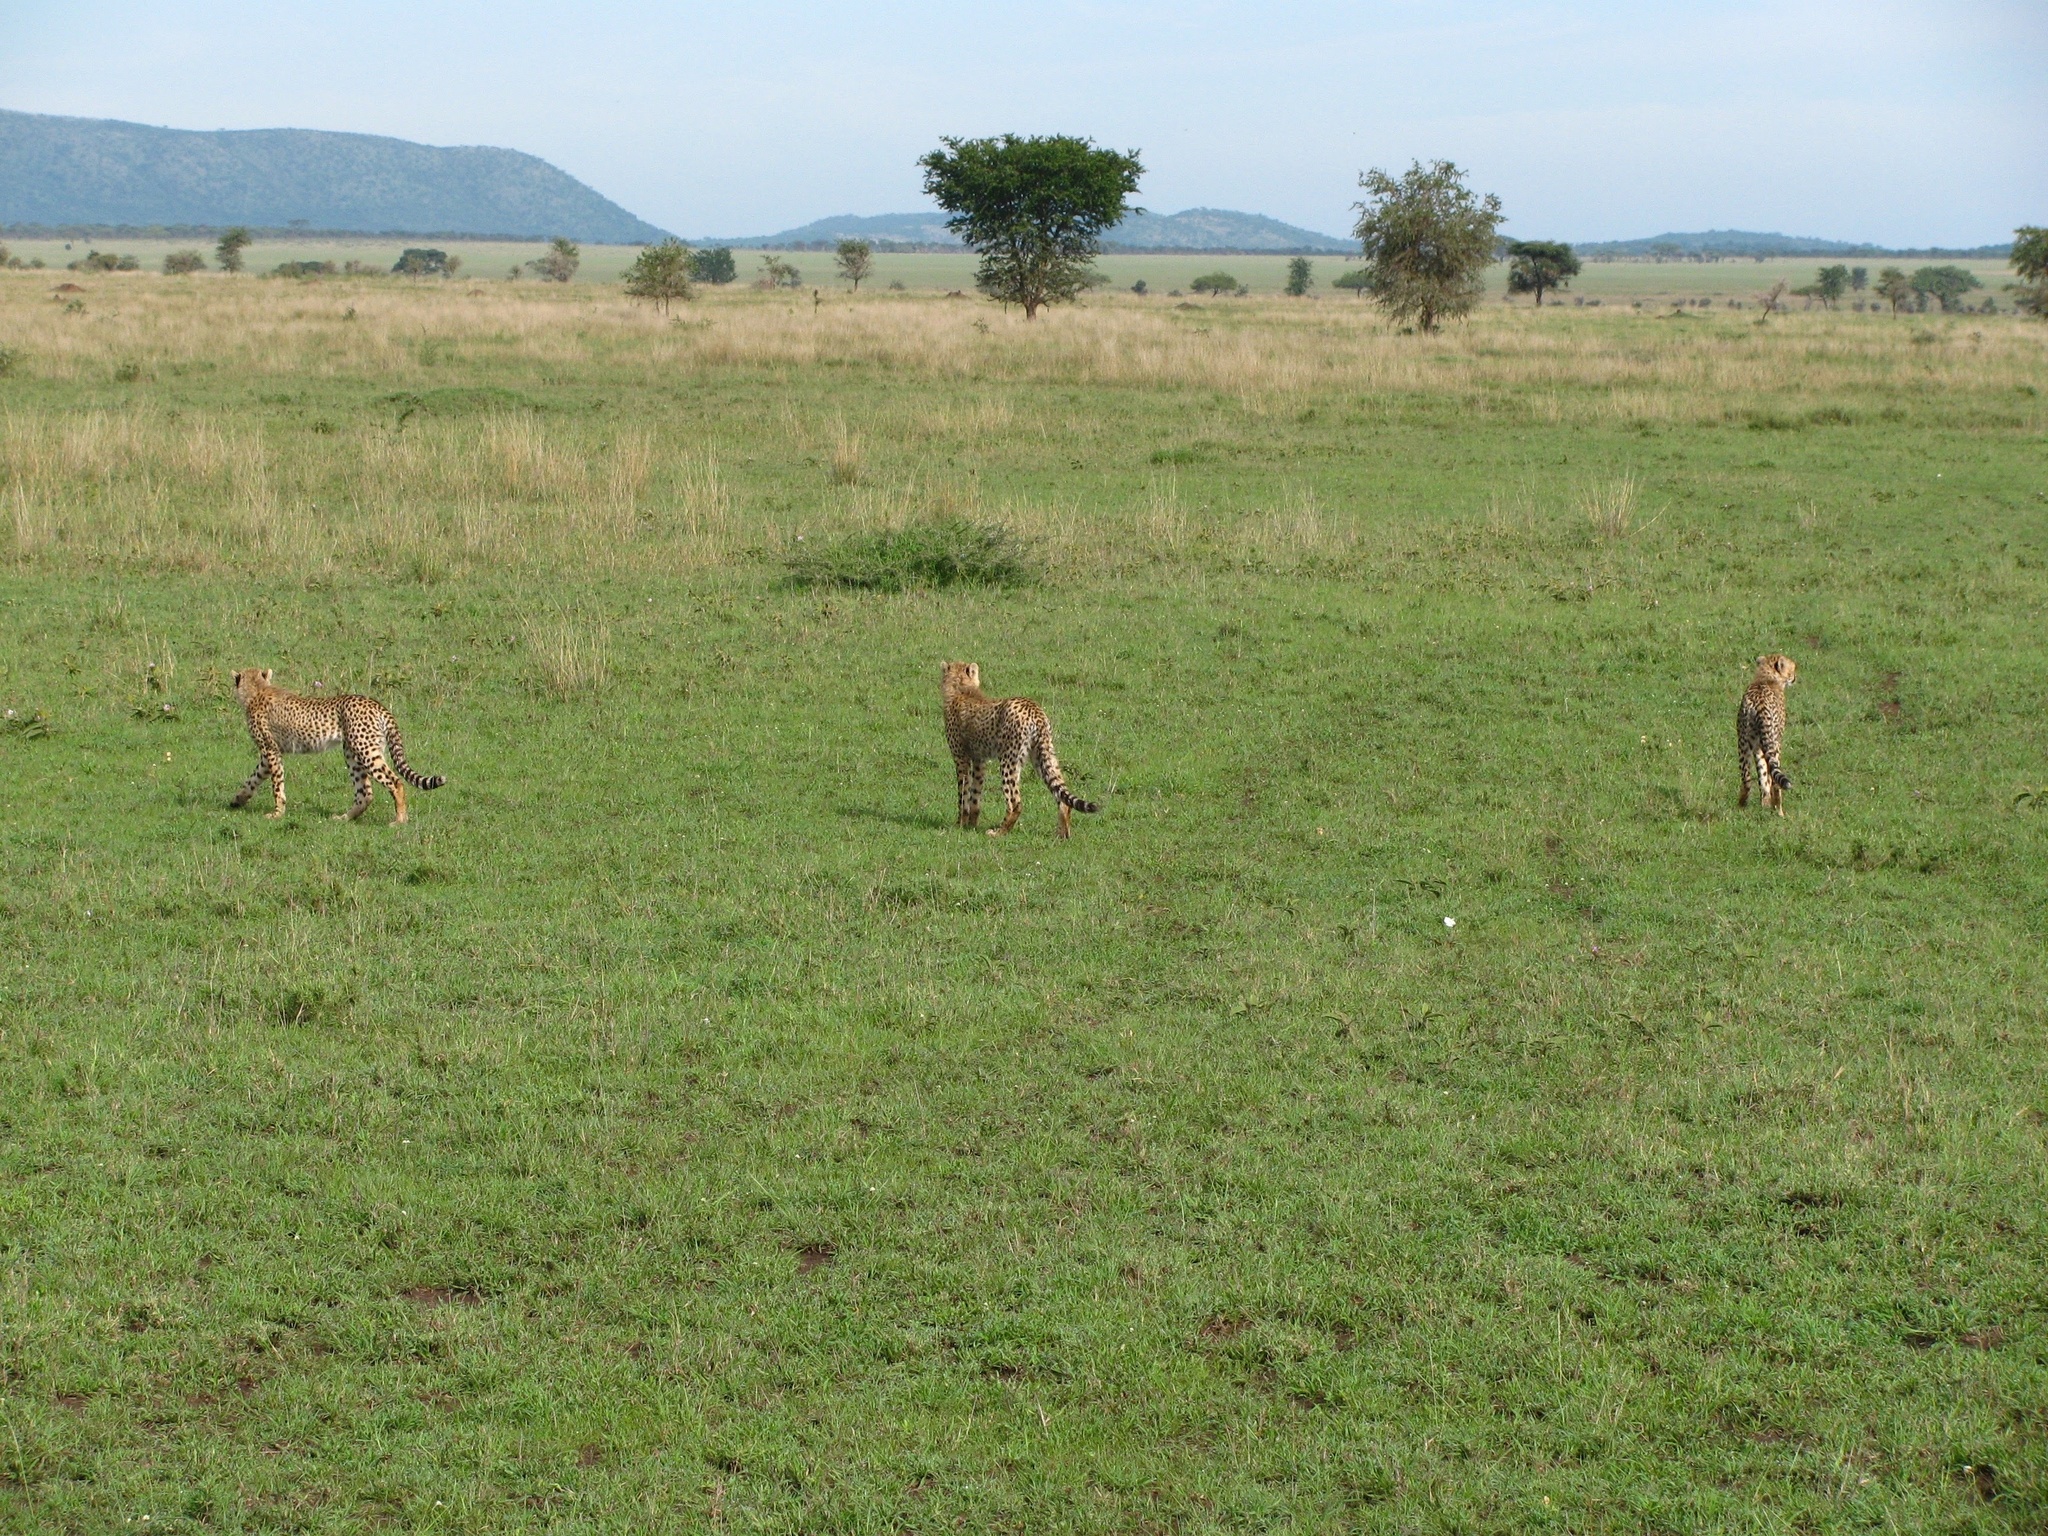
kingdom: Animalia
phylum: Chordata
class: Mammalia
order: Carnivora
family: Felidae
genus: Acinonyx
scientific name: Acinonyx jubatus
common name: Cheetah
